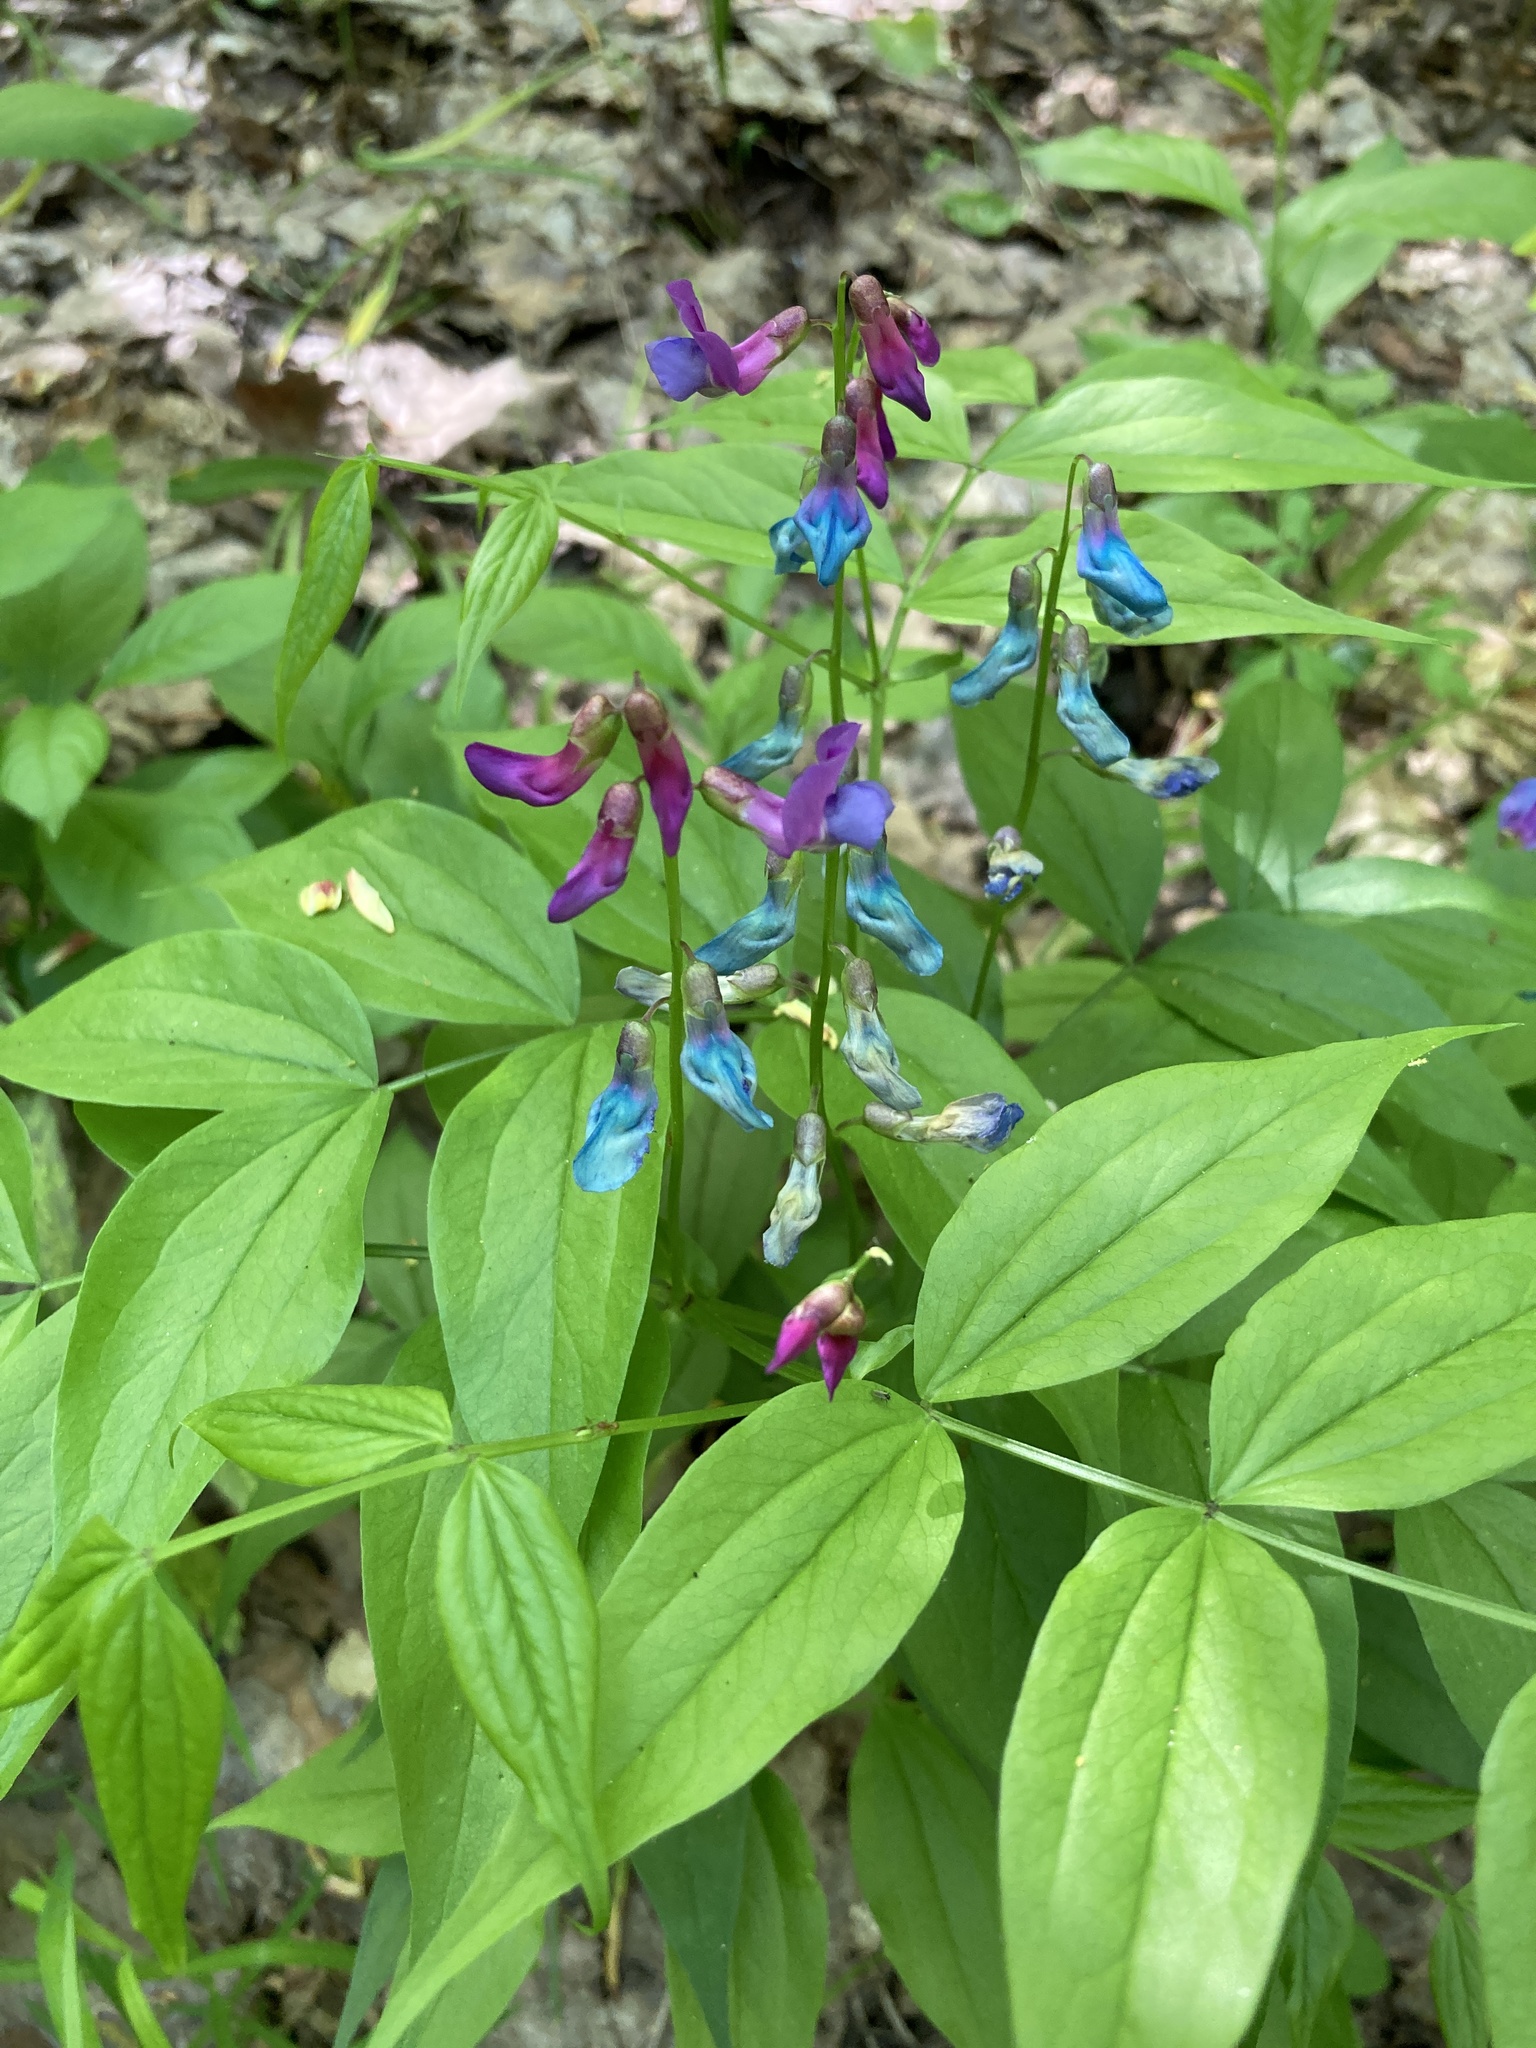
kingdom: Plantae
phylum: Tracheophyta
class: Magnoliopsida
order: Fabales
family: Fabaceae
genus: Lathyrus
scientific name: Lathyrus vernus
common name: Spring pea
